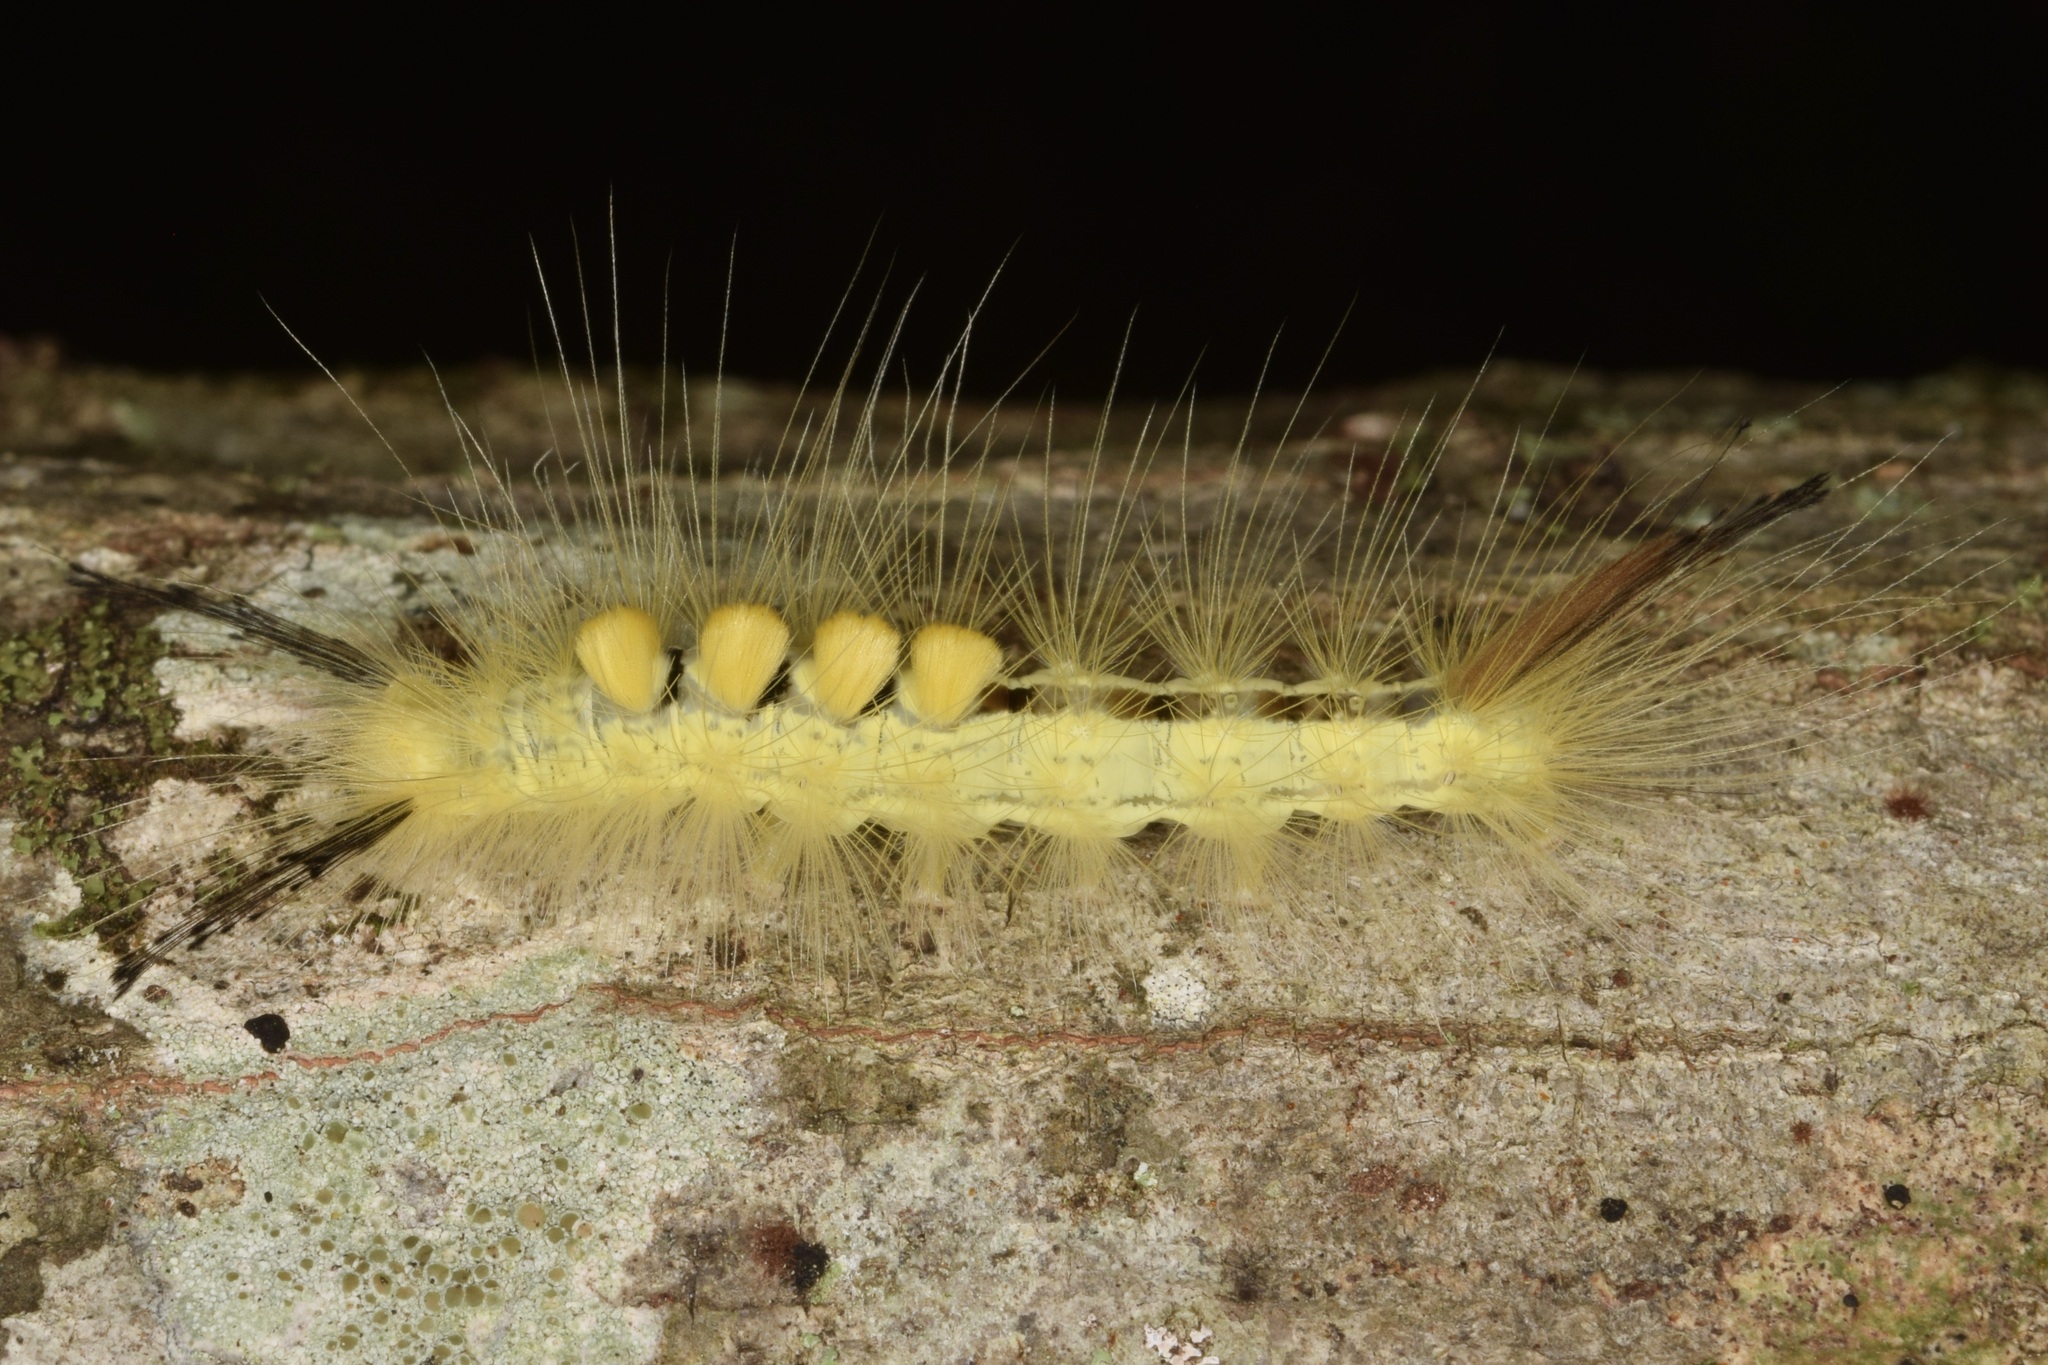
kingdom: Animalia
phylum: Arthropoda
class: Insecta
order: Lepidoptera
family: Erebidae
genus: Orgyia
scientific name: Orgyia definita
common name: Definite tussock moth
